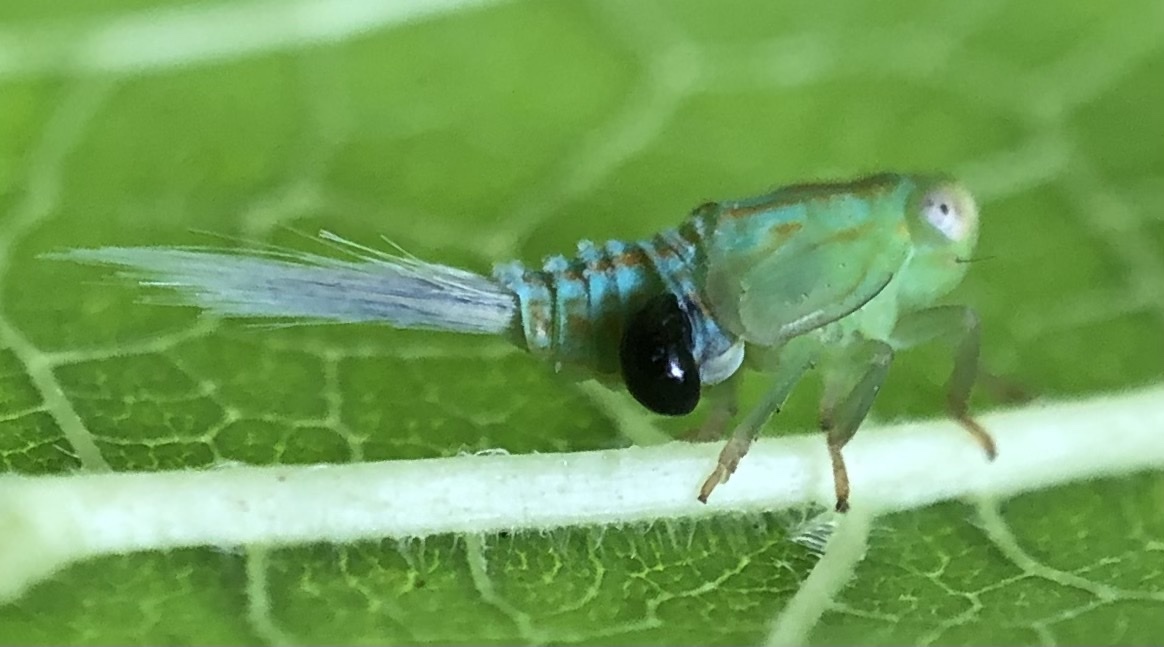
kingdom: Animalia
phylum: Arthropoda
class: Insecta
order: Hemiptera
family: Issidae
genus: Aplos
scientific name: Aplos simplex
